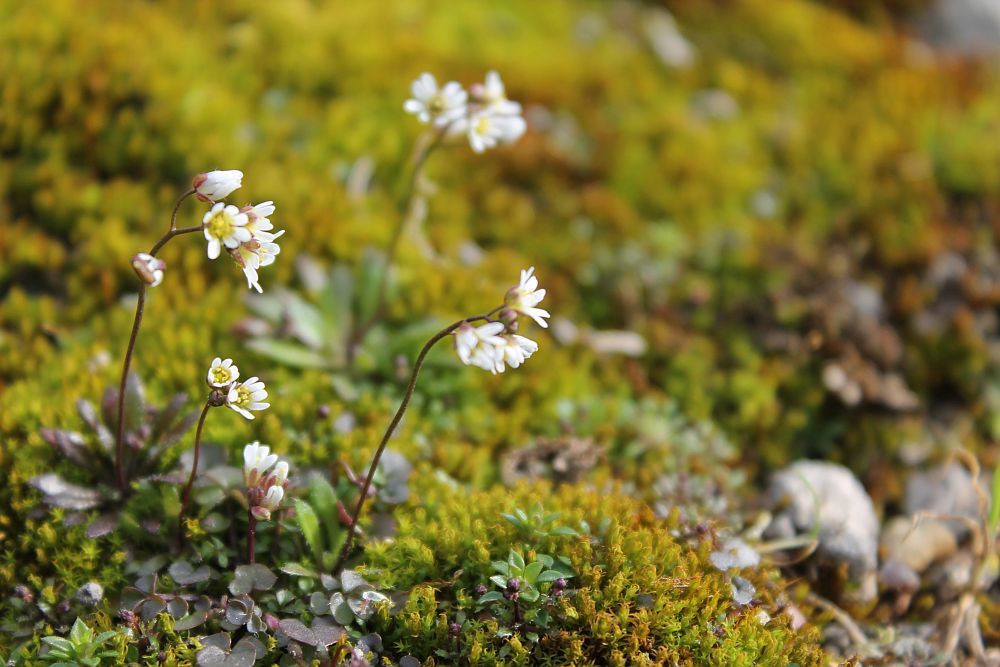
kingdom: Plantae
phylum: Tracheophyta
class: Magnoliopsida
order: Brassicales
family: Brassicaceae
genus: Draba
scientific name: Draba verna
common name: Spring draba
